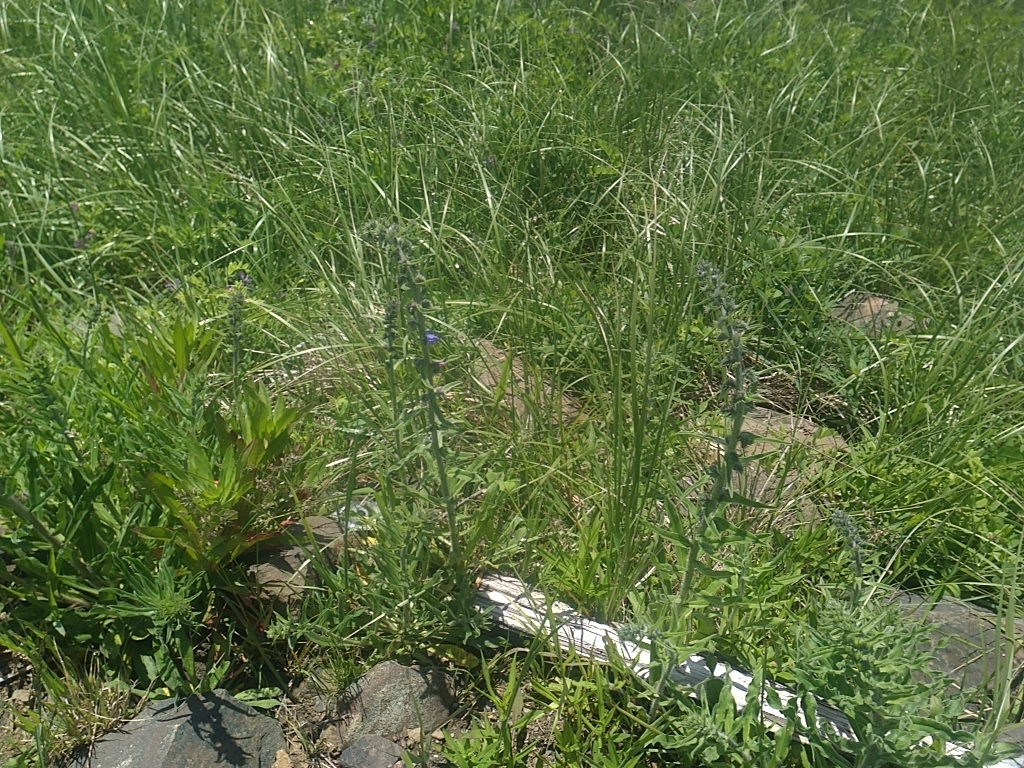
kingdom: Plantae
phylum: Tracheophyta
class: Magnoliopsida
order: Boraginales
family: Boraginaceae
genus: Echium
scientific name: Echium vulgare
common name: Common viper's bugloss
